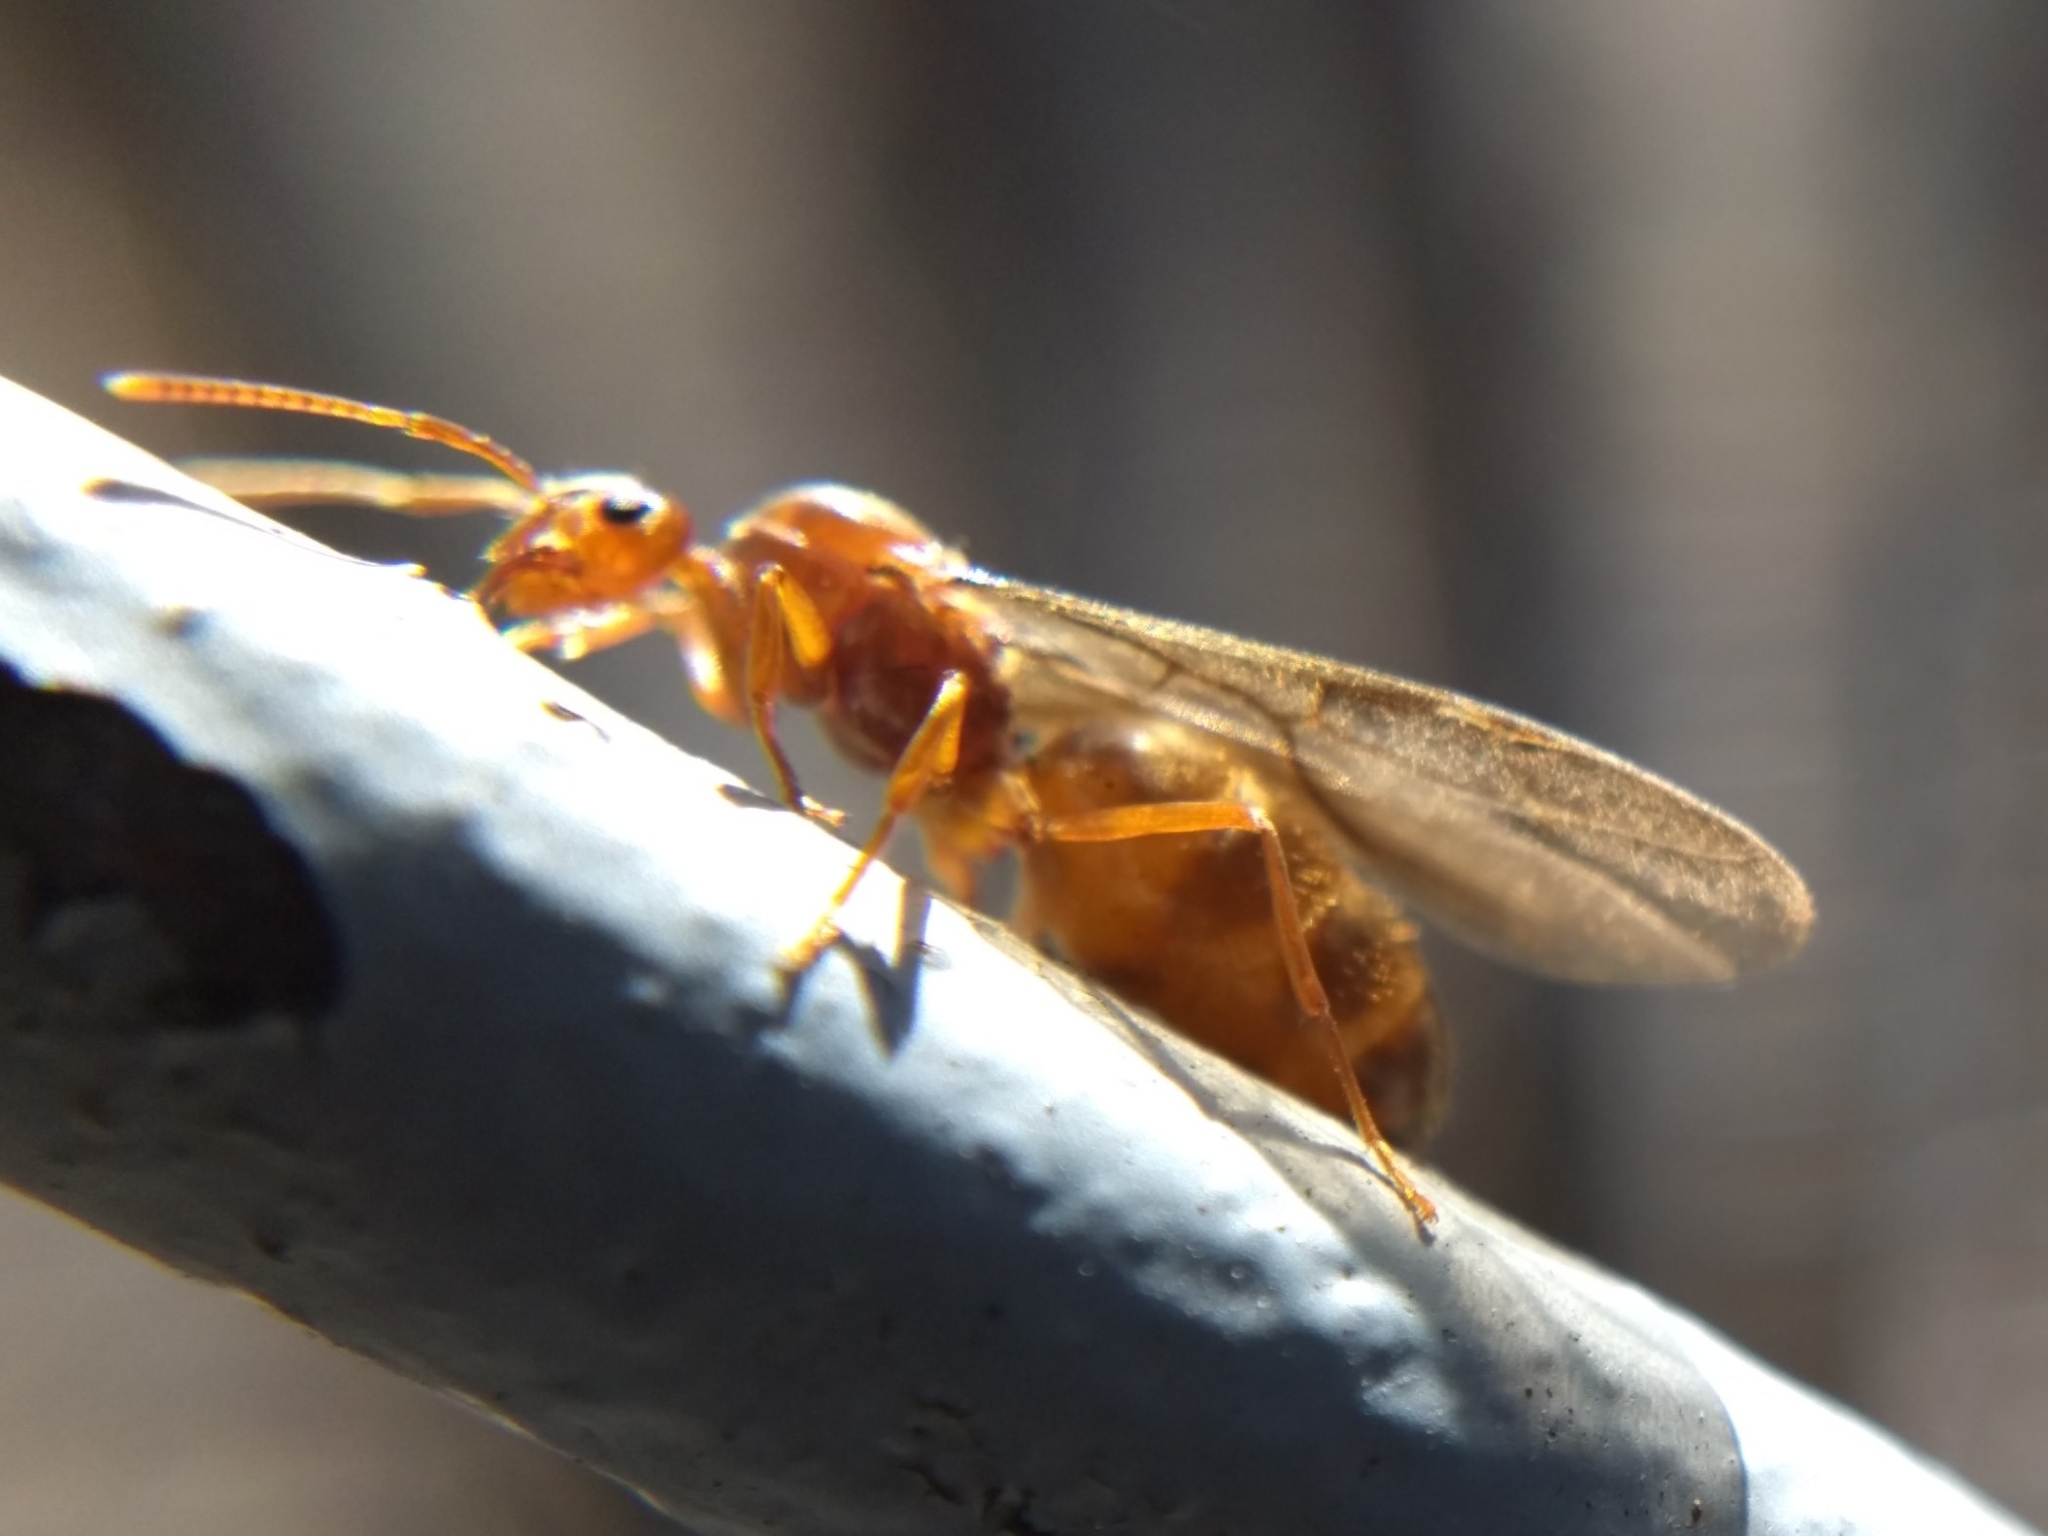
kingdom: Animalia
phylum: Arthropoda
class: Insecta
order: Hymenoptera
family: Formicidae
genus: Prenolepis
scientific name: Prenolepis imparis
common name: Small honey ant
